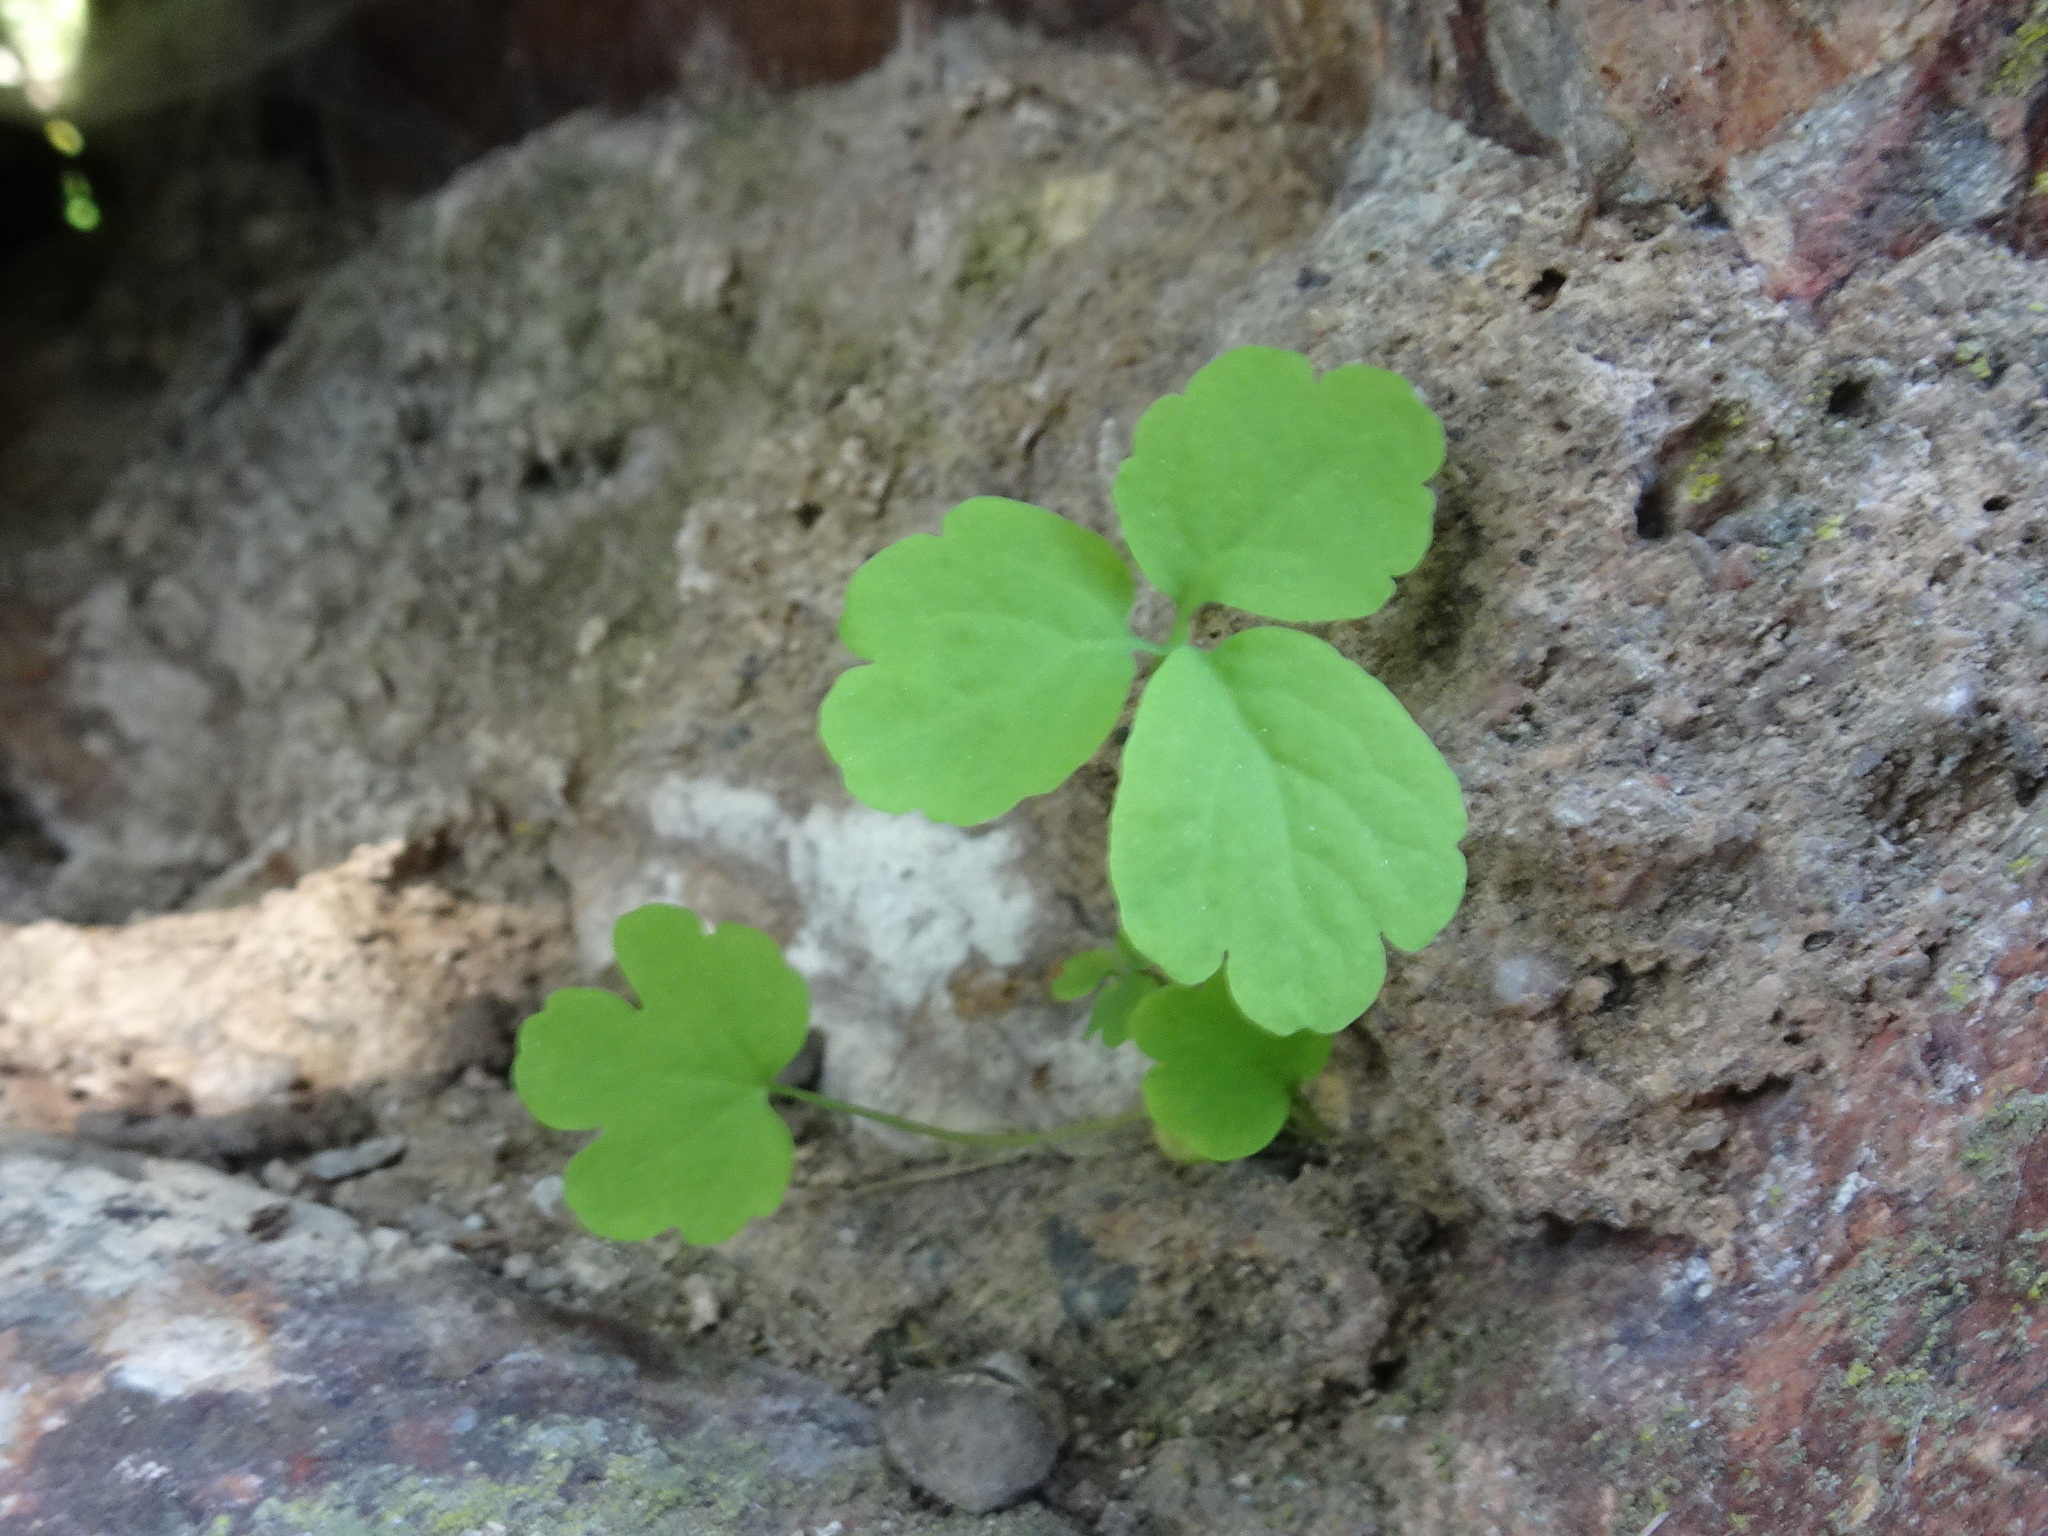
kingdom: Plantae
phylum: Tracheophyta
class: Magnoliopsida
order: Ranunculales
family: Papaveraceae
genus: Chelidonium
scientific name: Chelidonium majus
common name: Greater celandine
